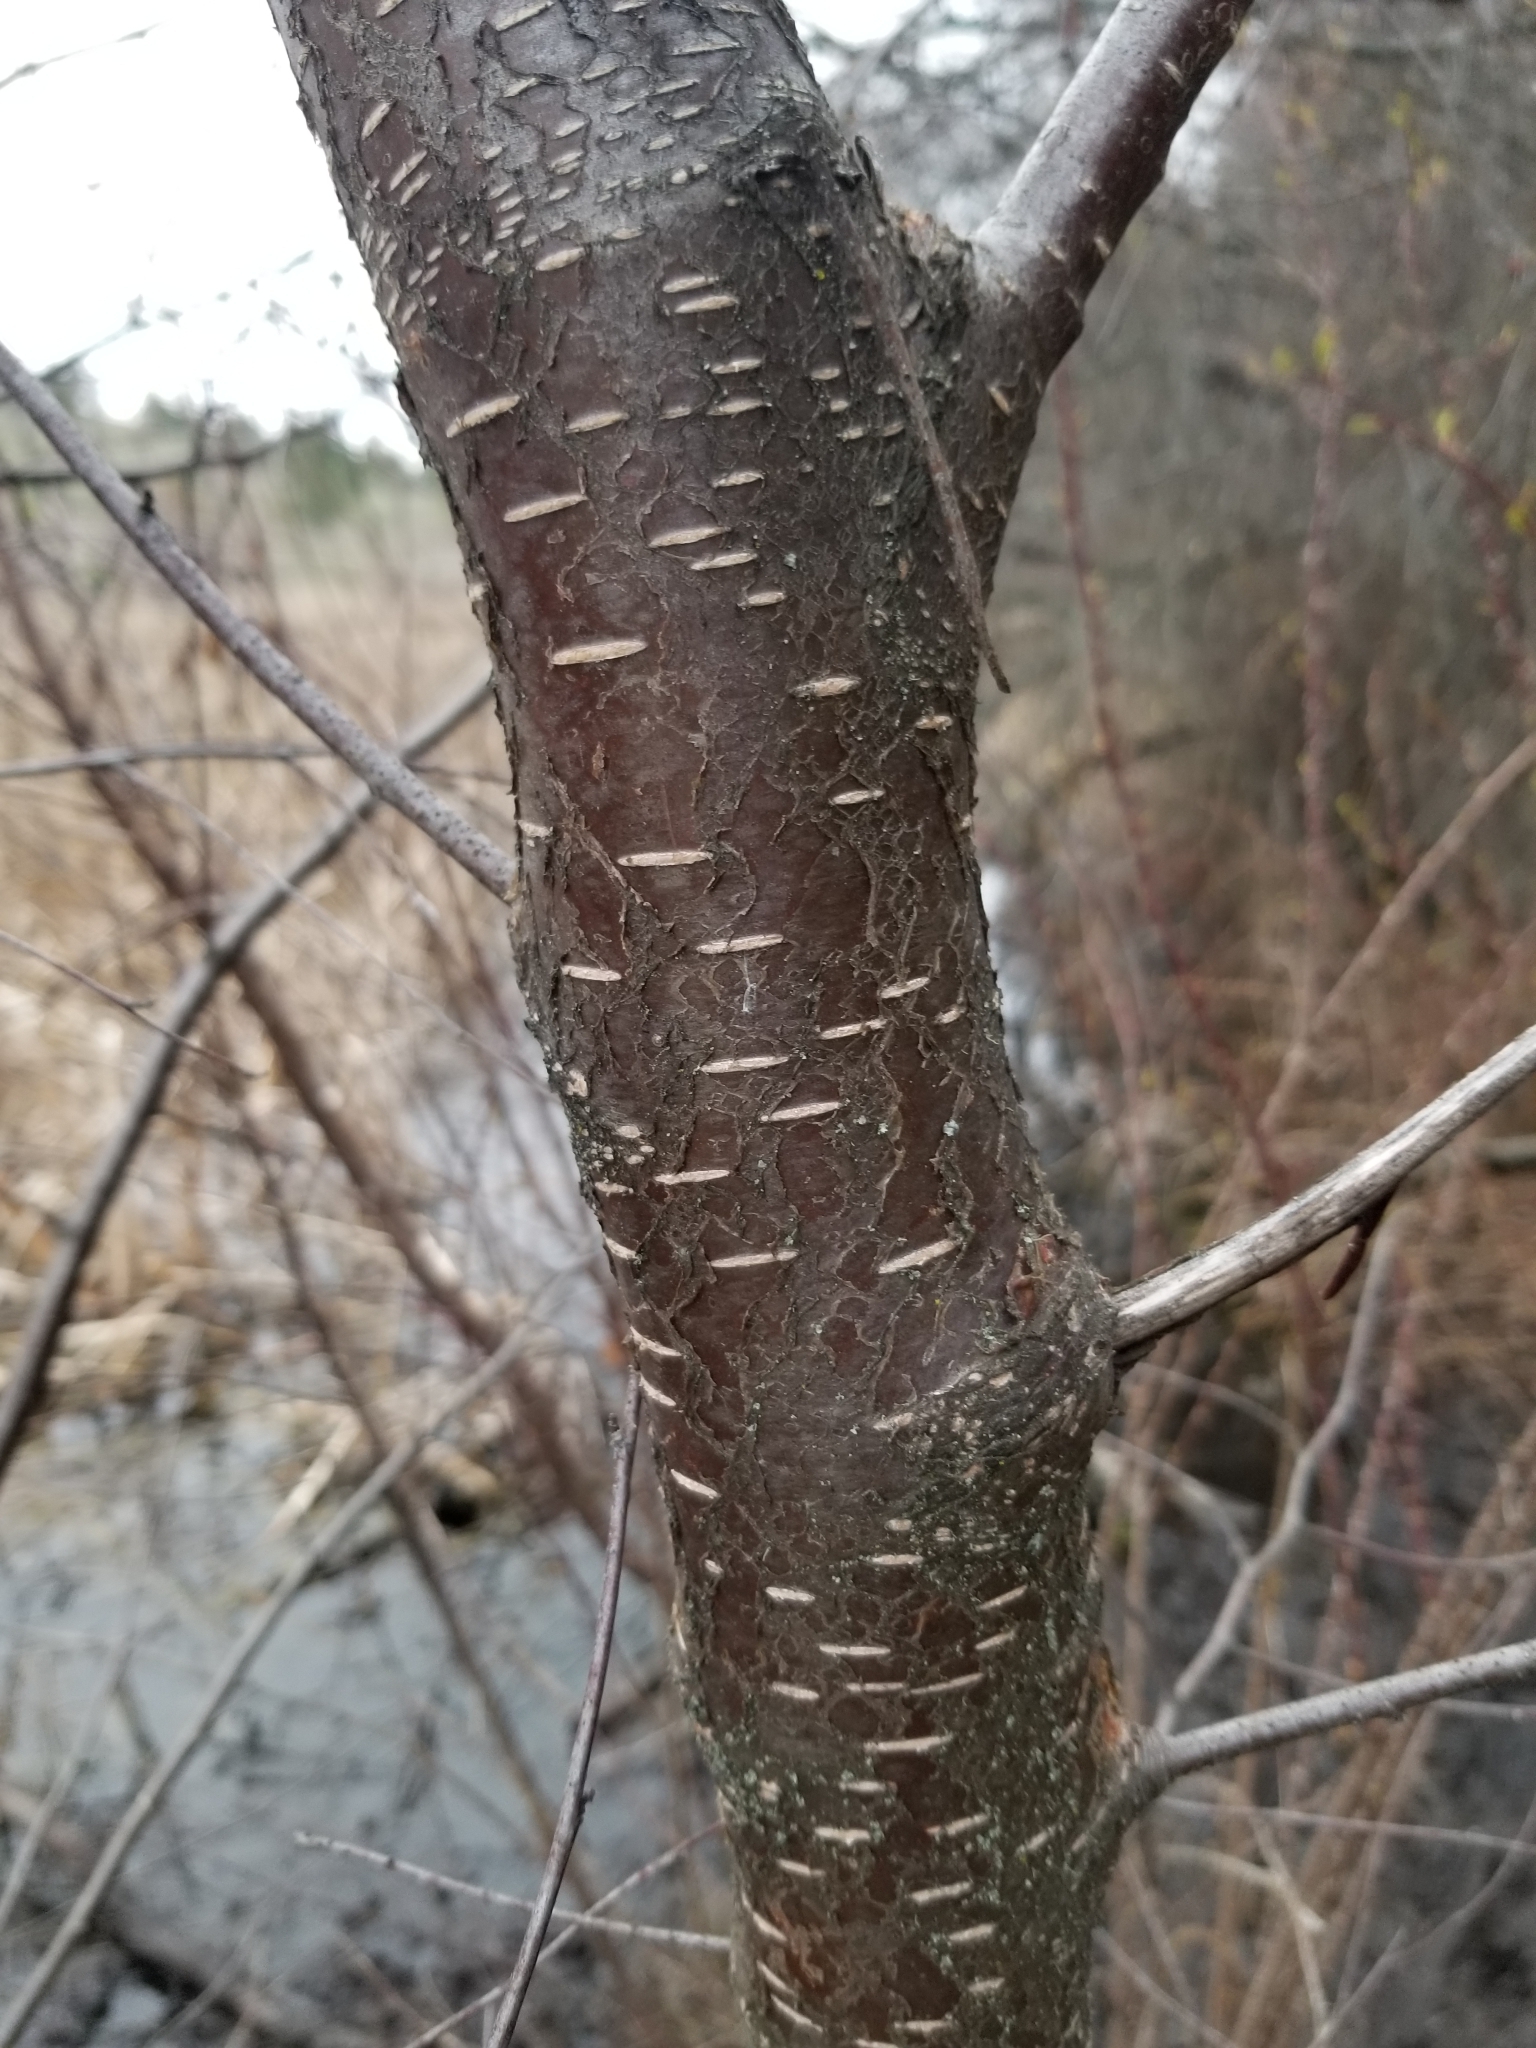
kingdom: Plantae
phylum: Tracheophyta
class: Magnoliopsida
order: Fagales
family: Betulaceae
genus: Betula
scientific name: Betula occidentalis
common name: River birch
